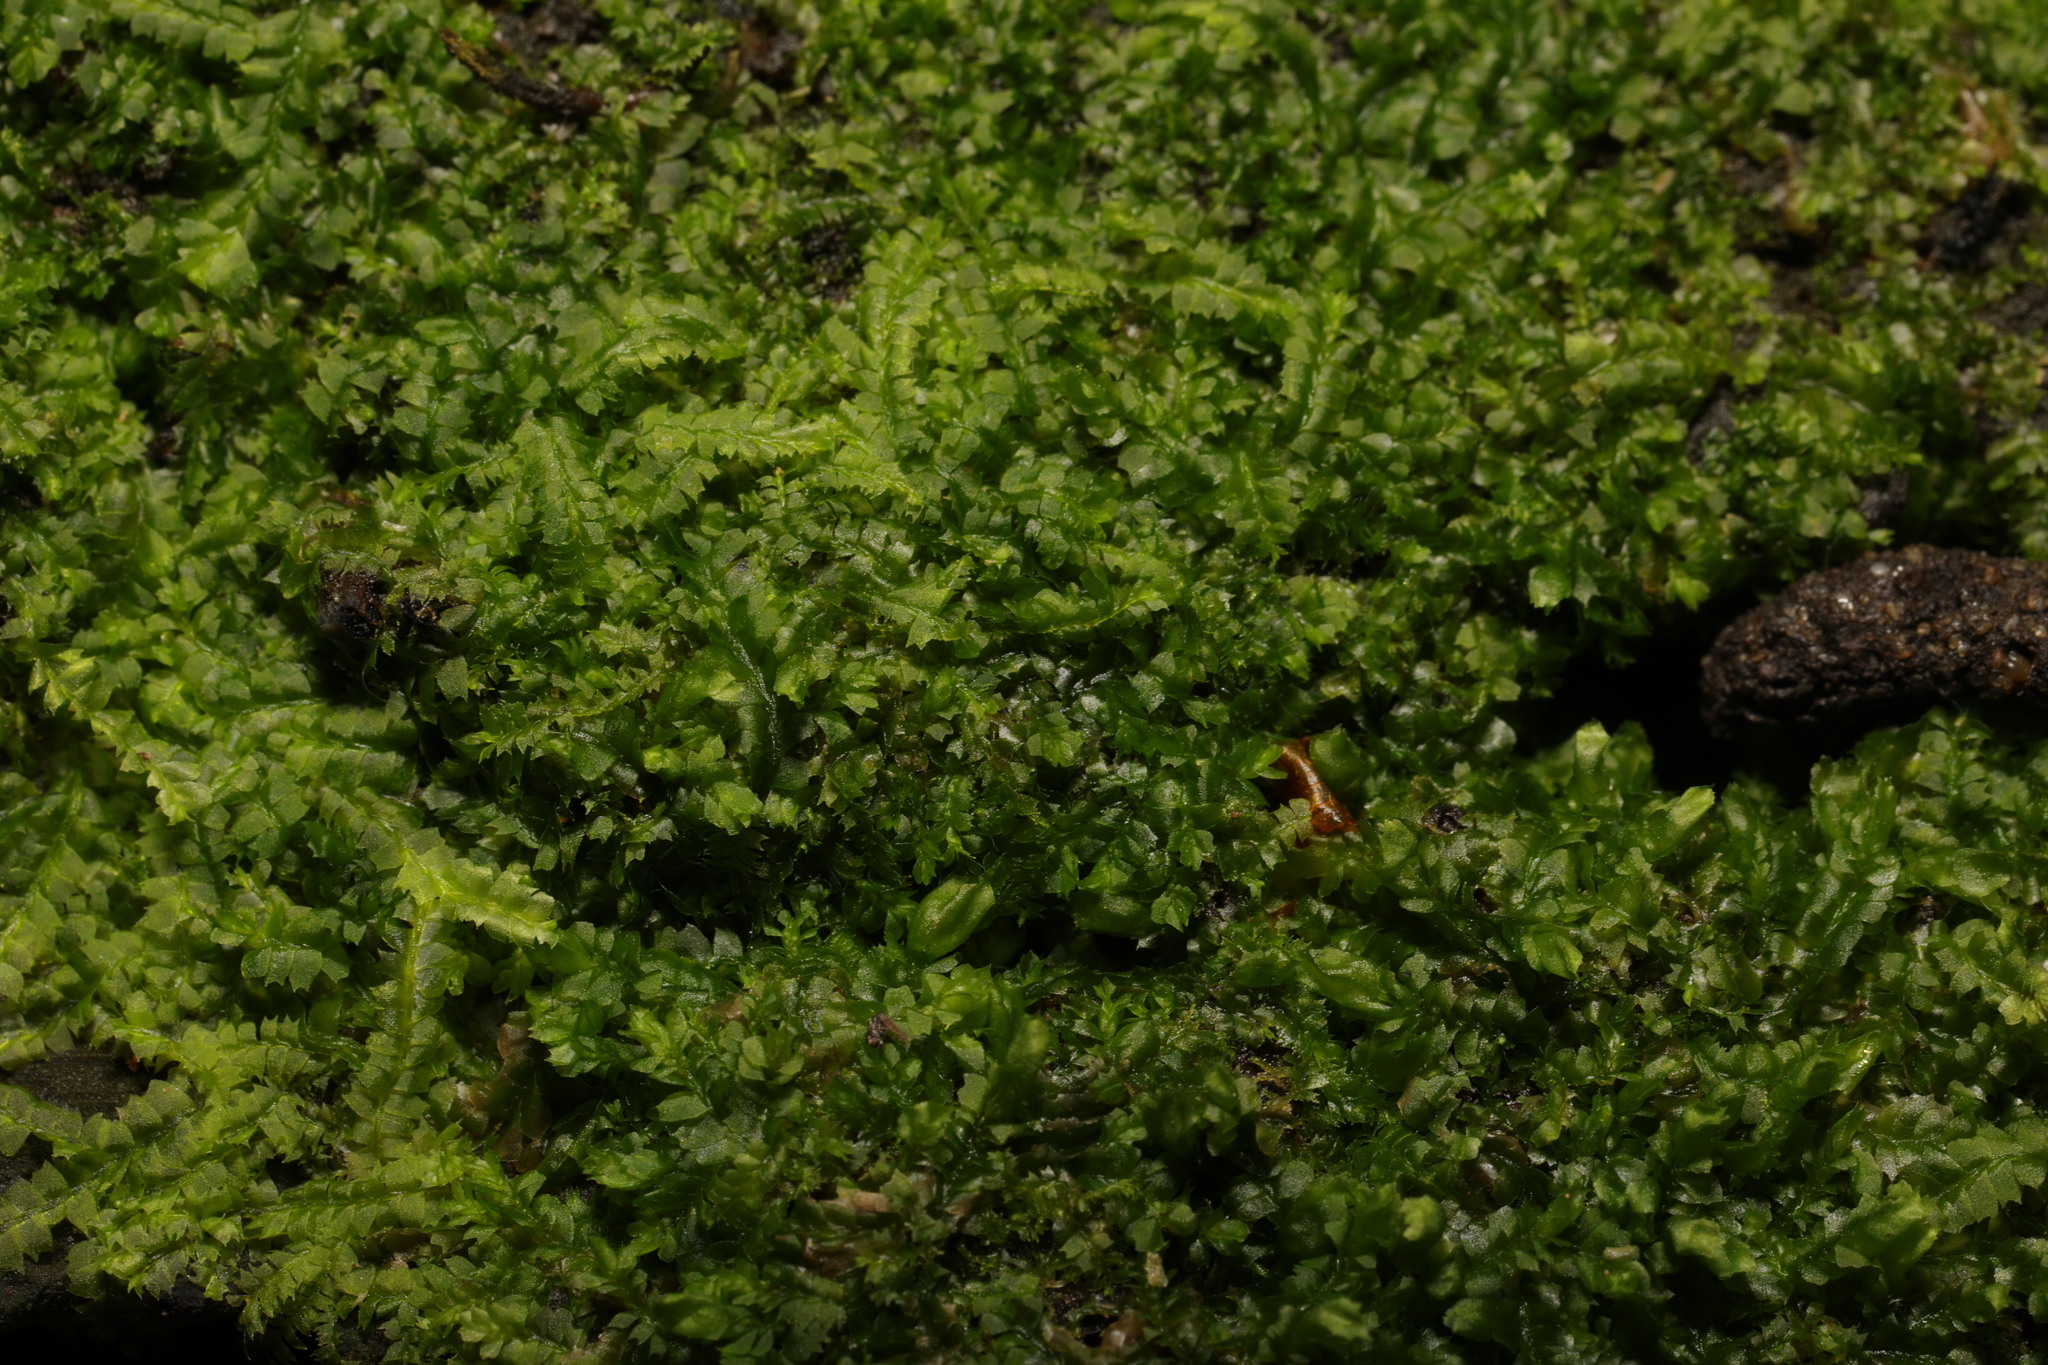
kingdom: Plantae
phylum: Marchantiophyta
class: Jungermanniopsida
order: Jungermanniales
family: Lophocoleaceae
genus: Lophocolea
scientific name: Lophocolea bidentata
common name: Bifid crestwort
